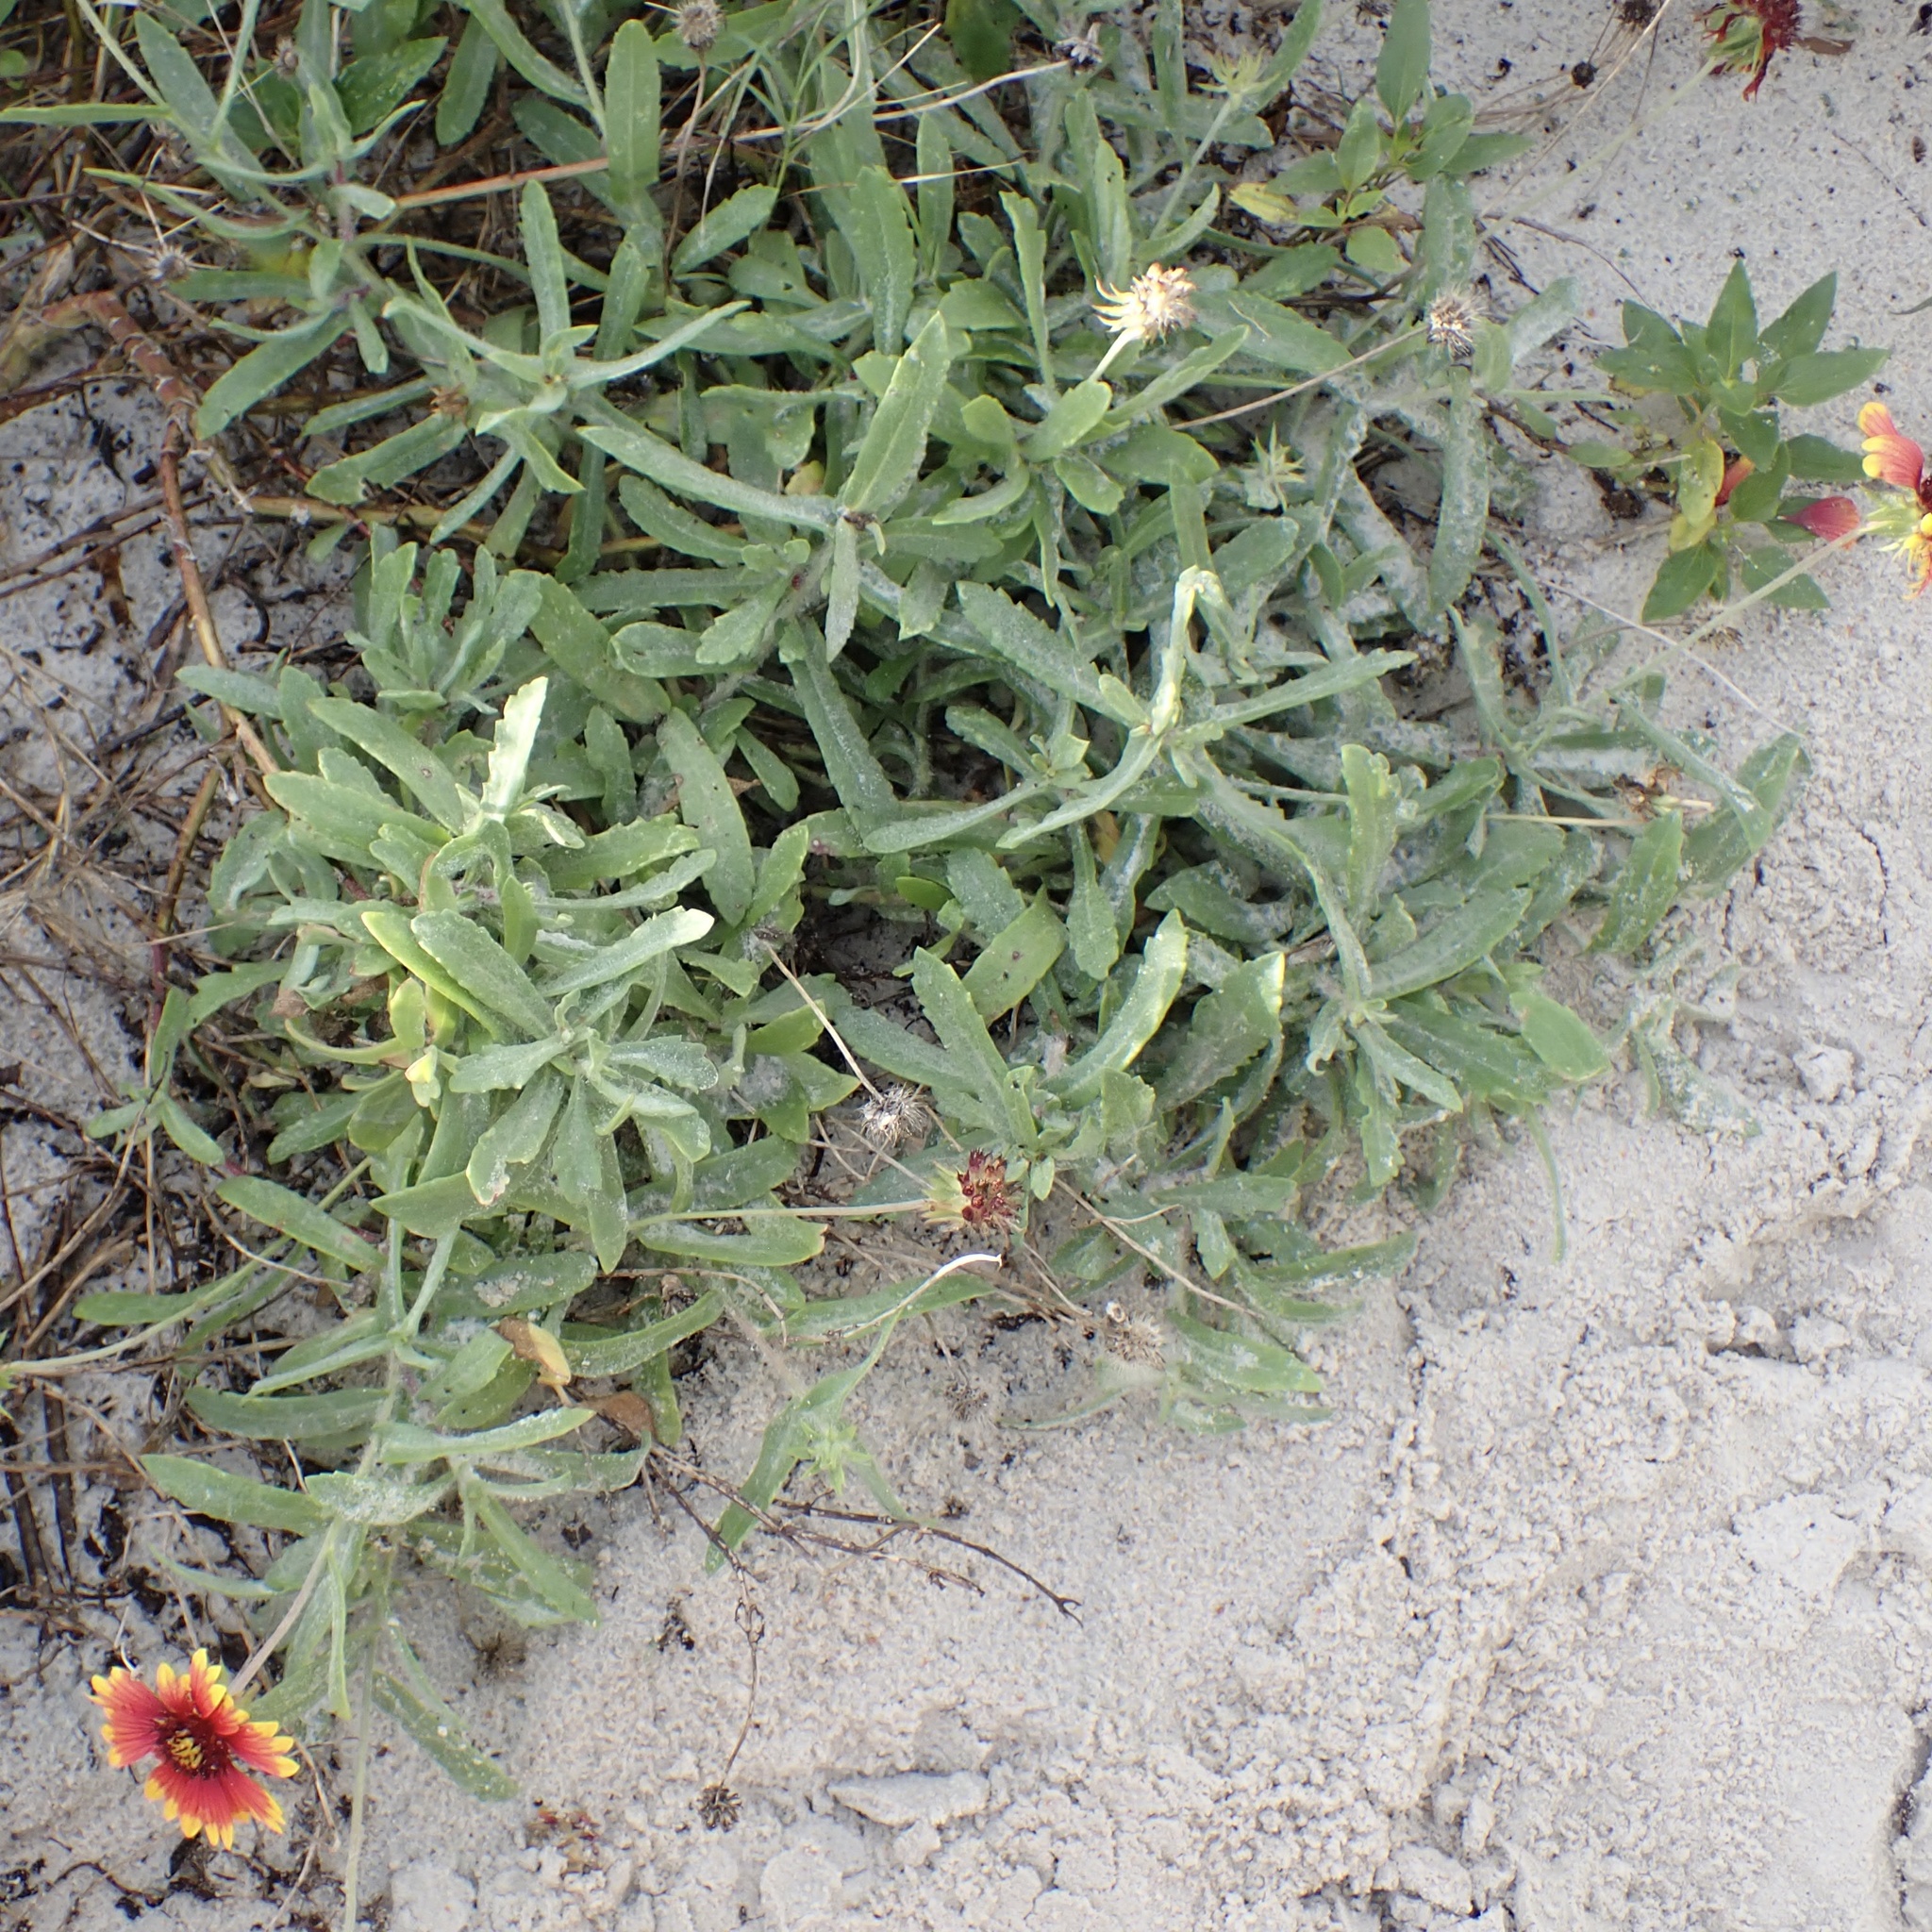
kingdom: Plantae
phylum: Tracheophyta
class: Magnoliopsida
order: Asterales
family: Asteraceae
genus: Gaillardia
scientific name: Gaillardia pulchella
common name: Firewheel
